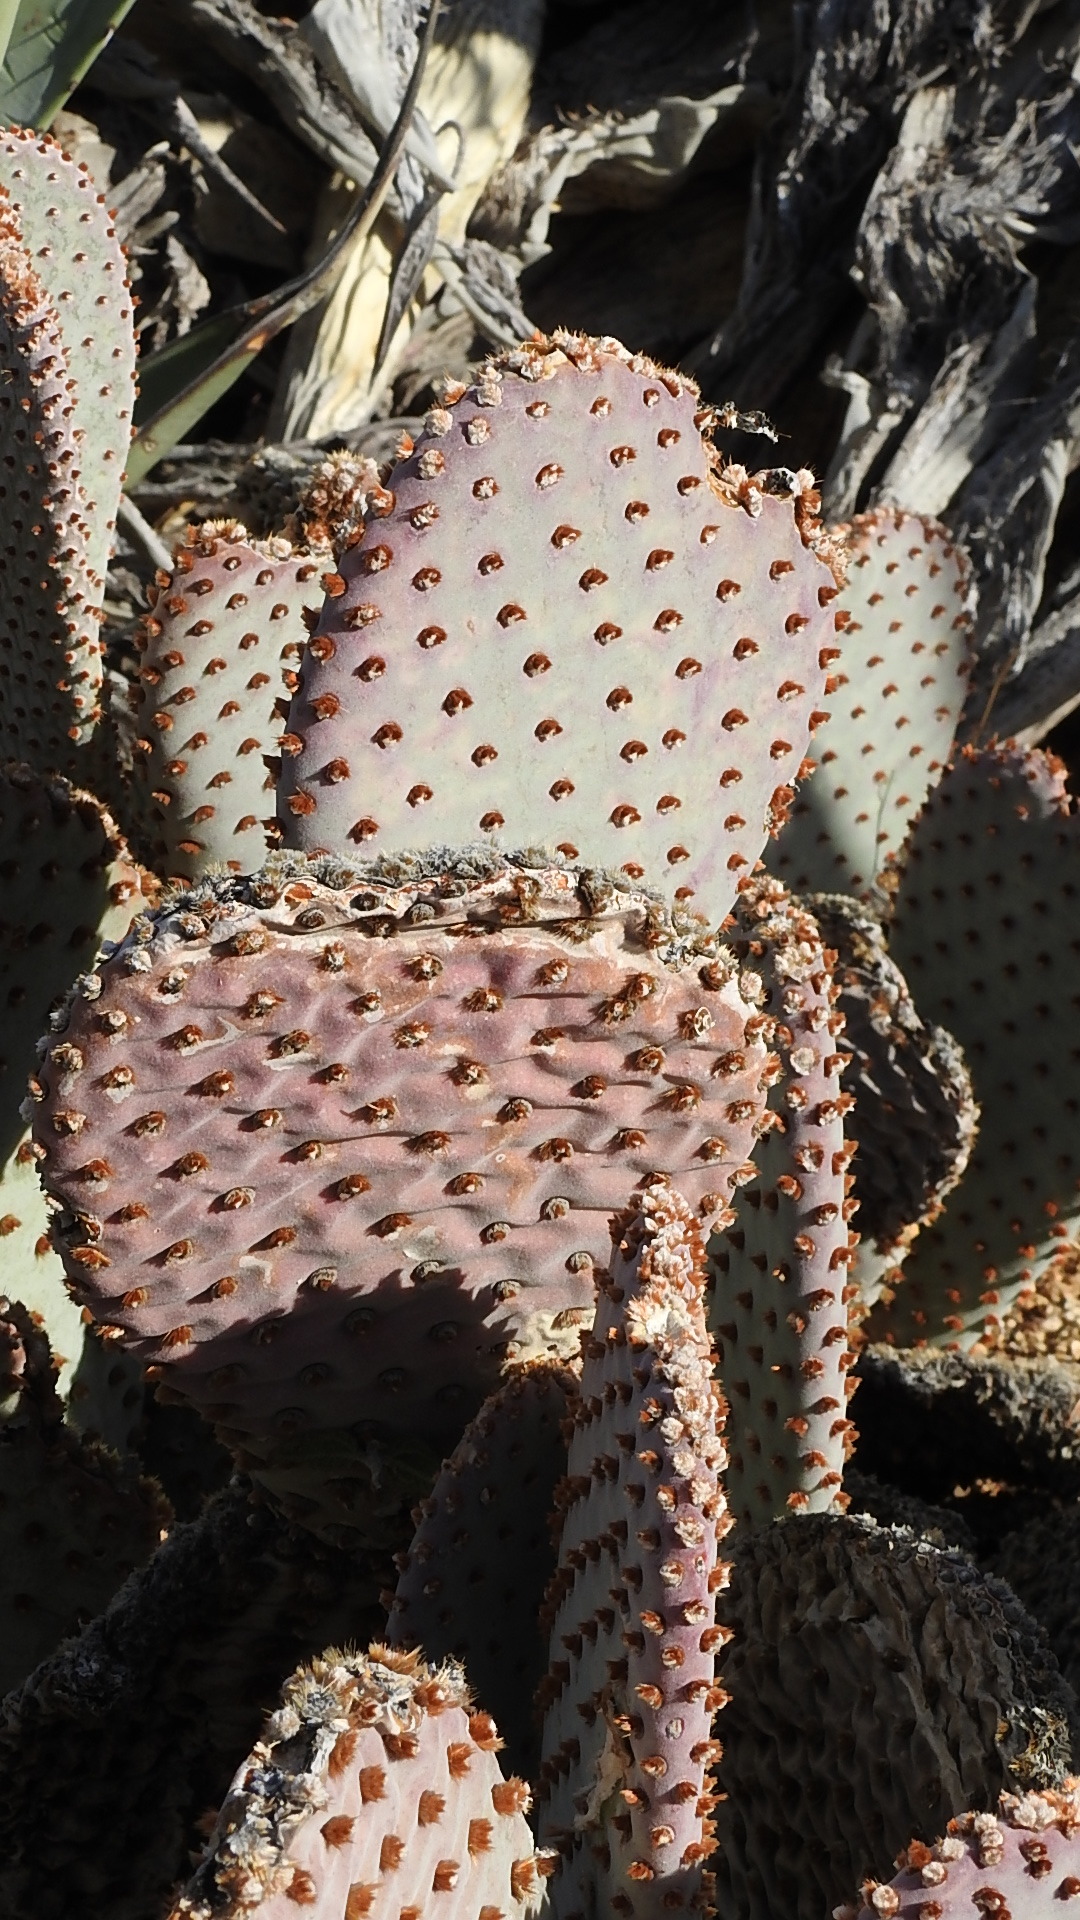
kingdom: Plantae
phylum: Tracheophyta
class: Magnoliopsida
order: Caryophyllales
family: Cactaceae
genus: Opuntia
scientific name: Opuntia basilaris
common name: Beavertail prickly-pear
